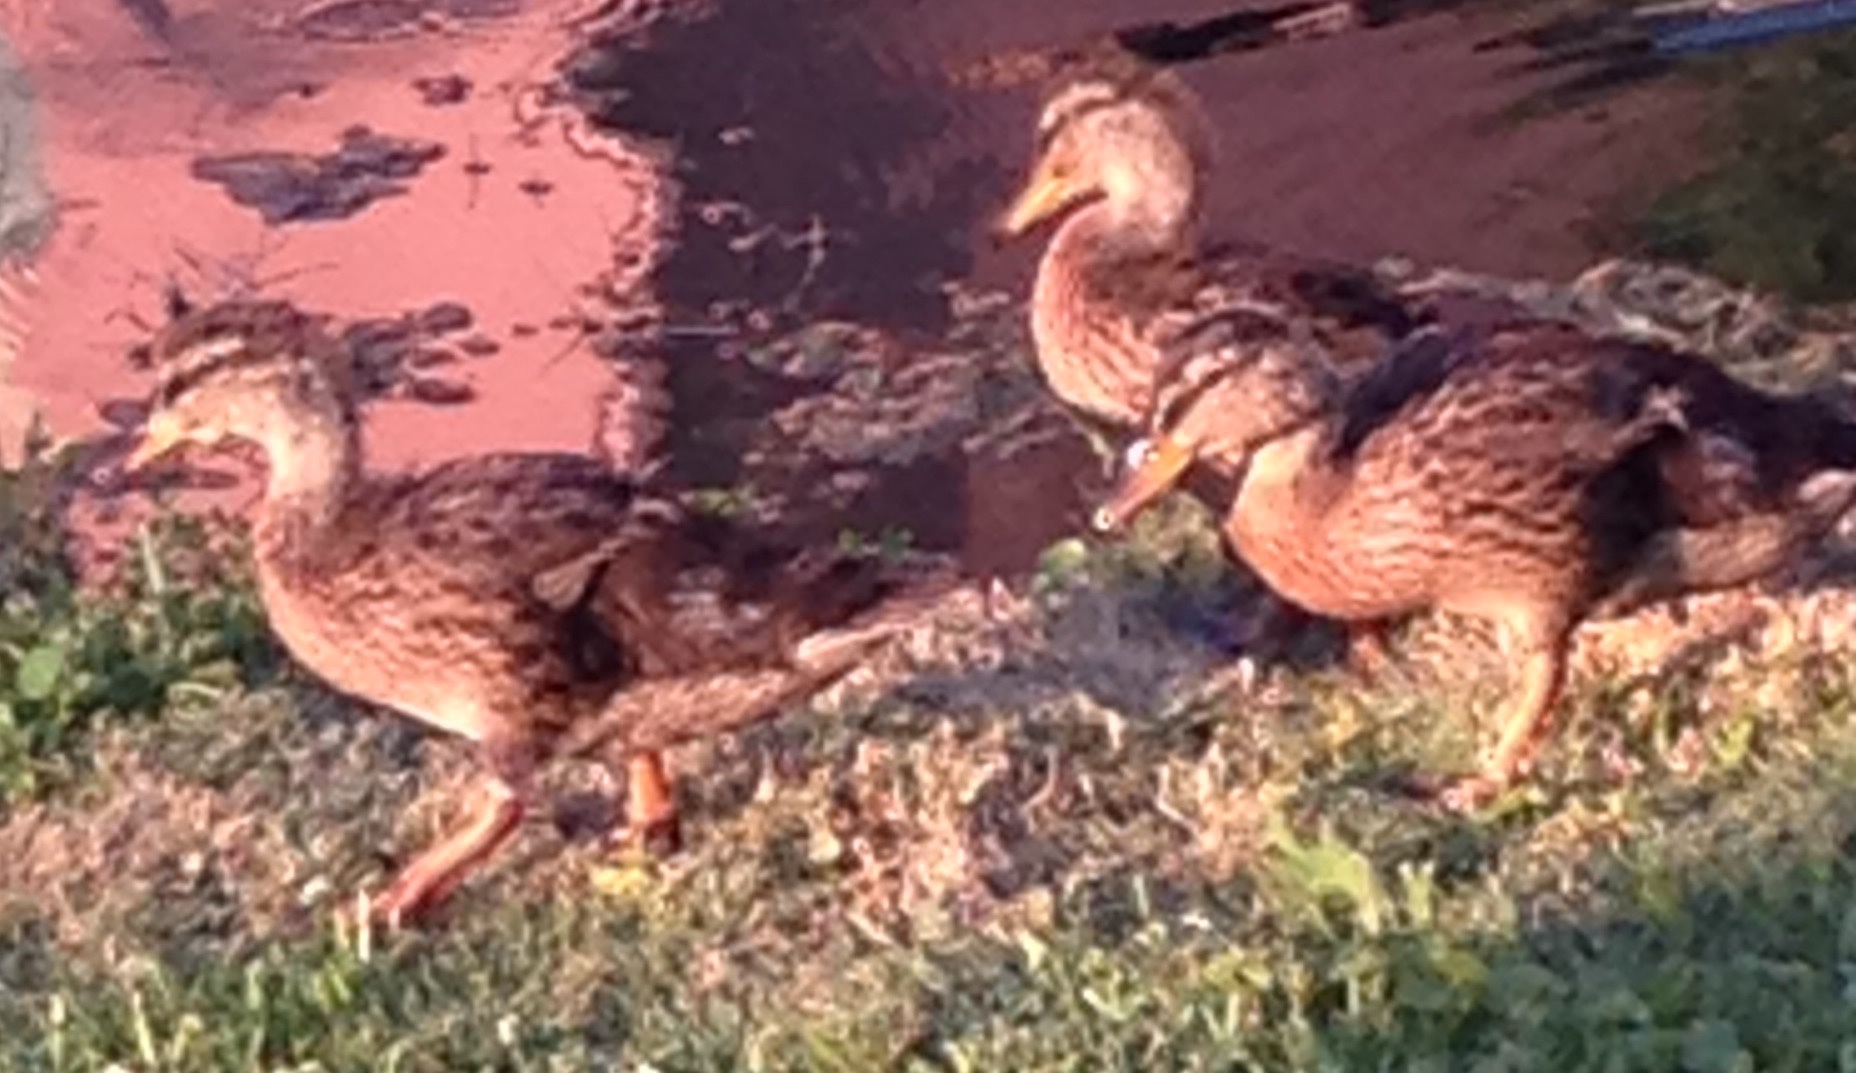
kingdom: Animalia
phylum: Chordata
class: Aves
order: Anseriformes
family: Anatidae
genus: Anas
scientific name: Anas fulvigula
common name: Mottled duck
